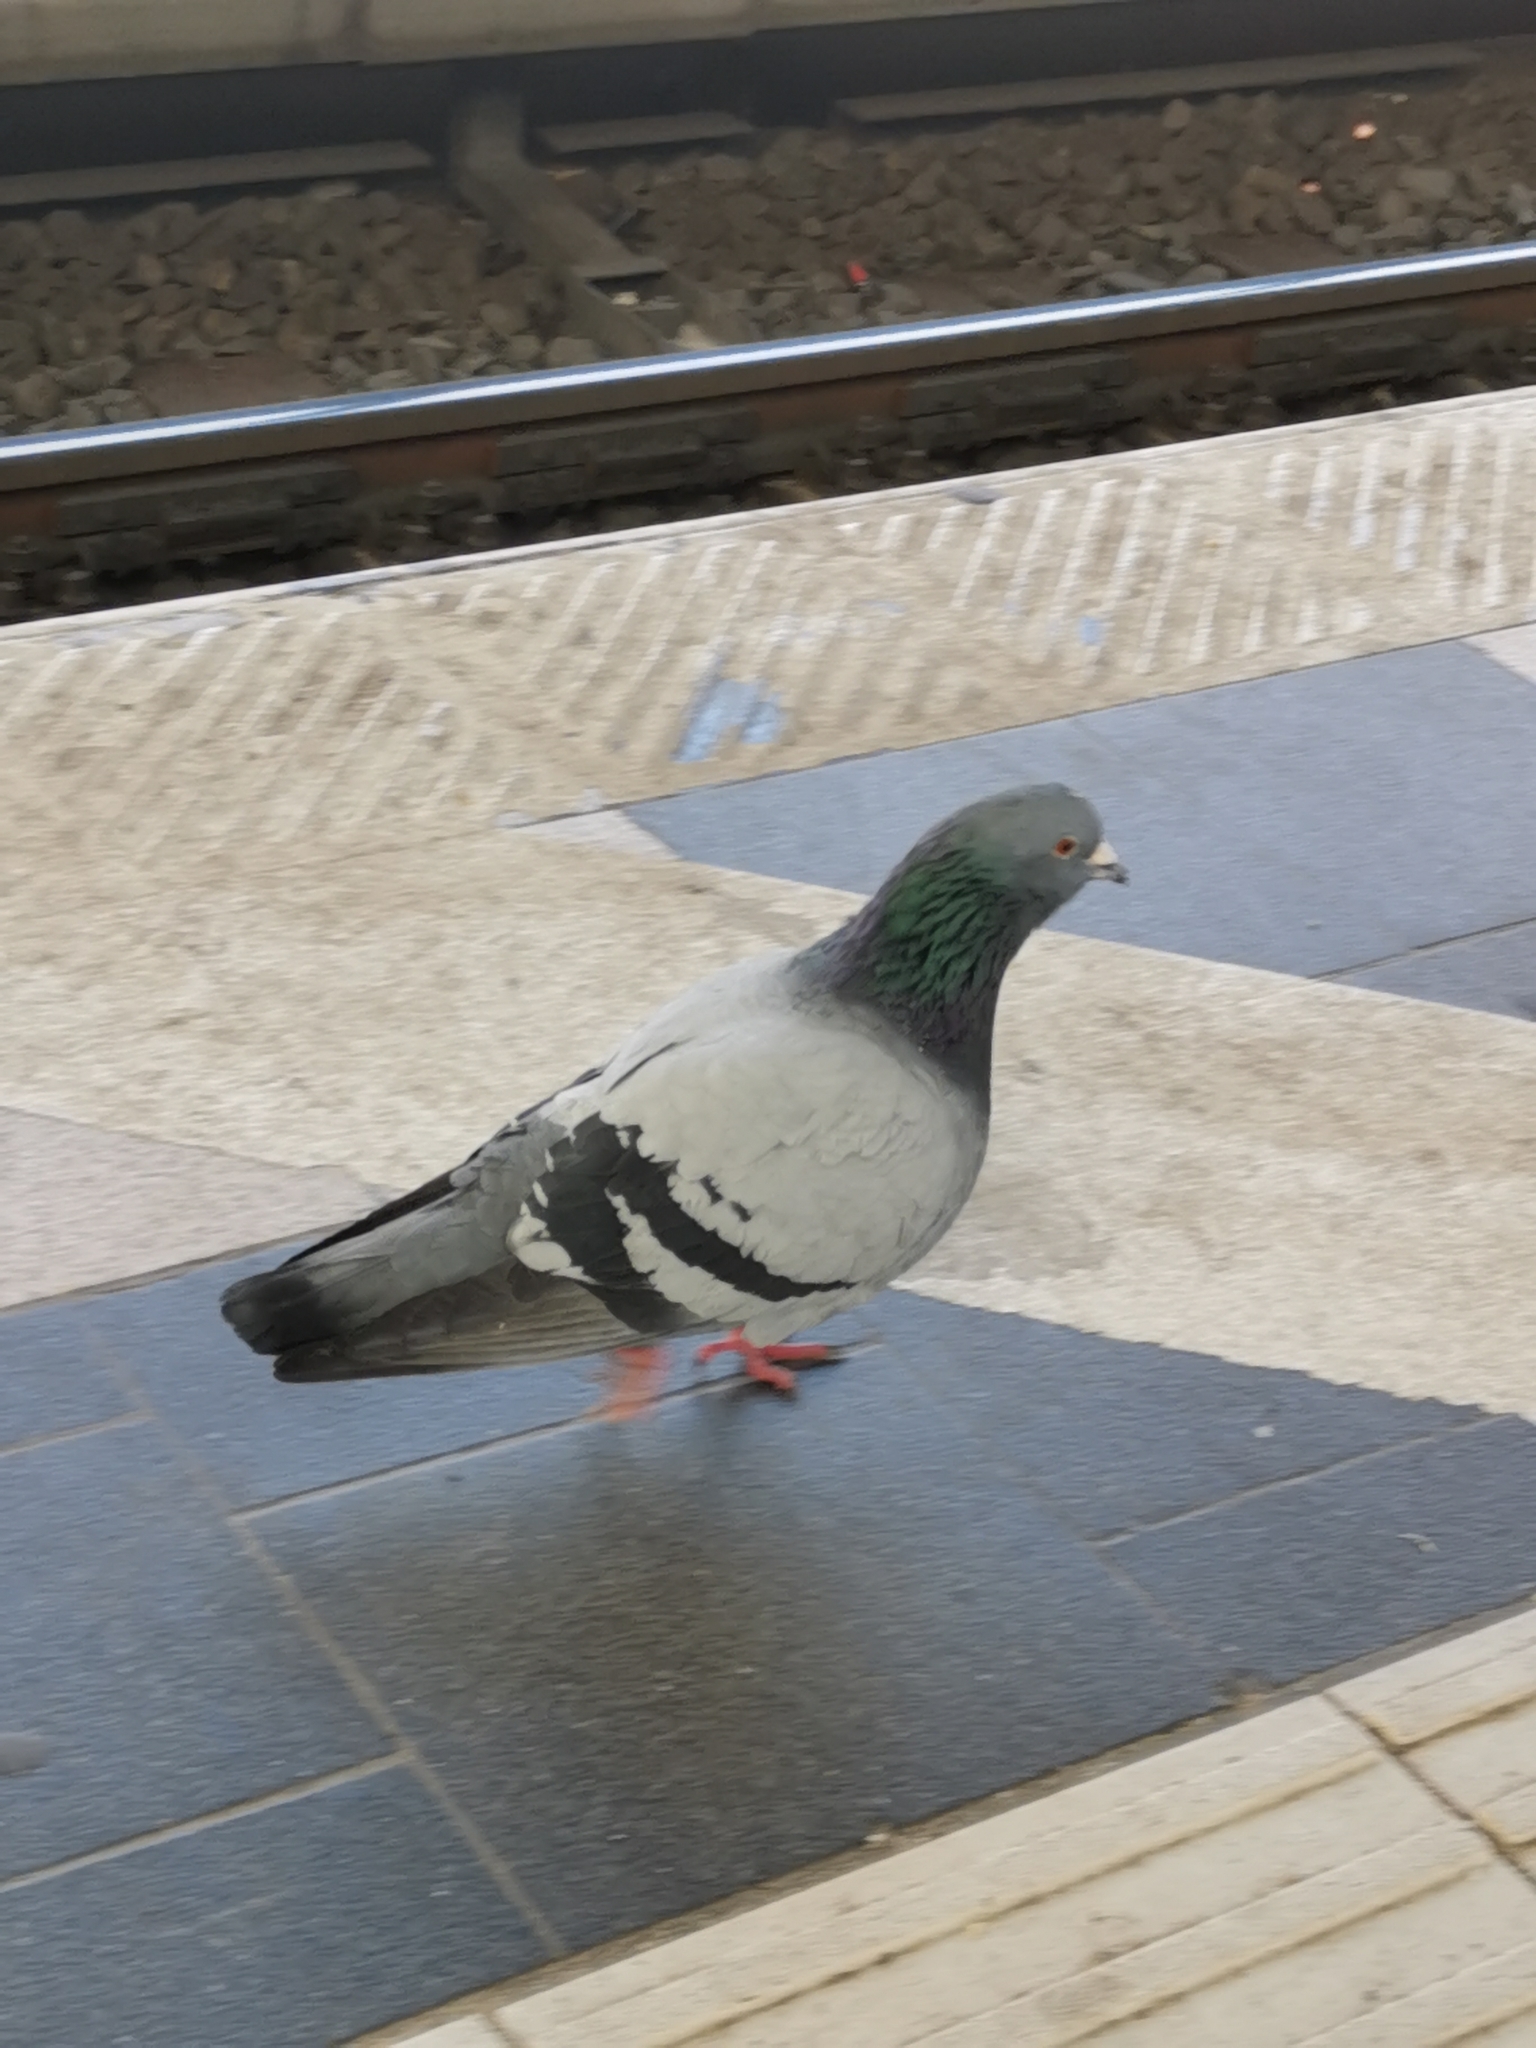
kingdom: Animalia
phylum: Chordata
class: Aves
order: Columbiformes
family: Columbidae
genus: Columba
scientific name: Columba livia
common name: Rock pigeon
